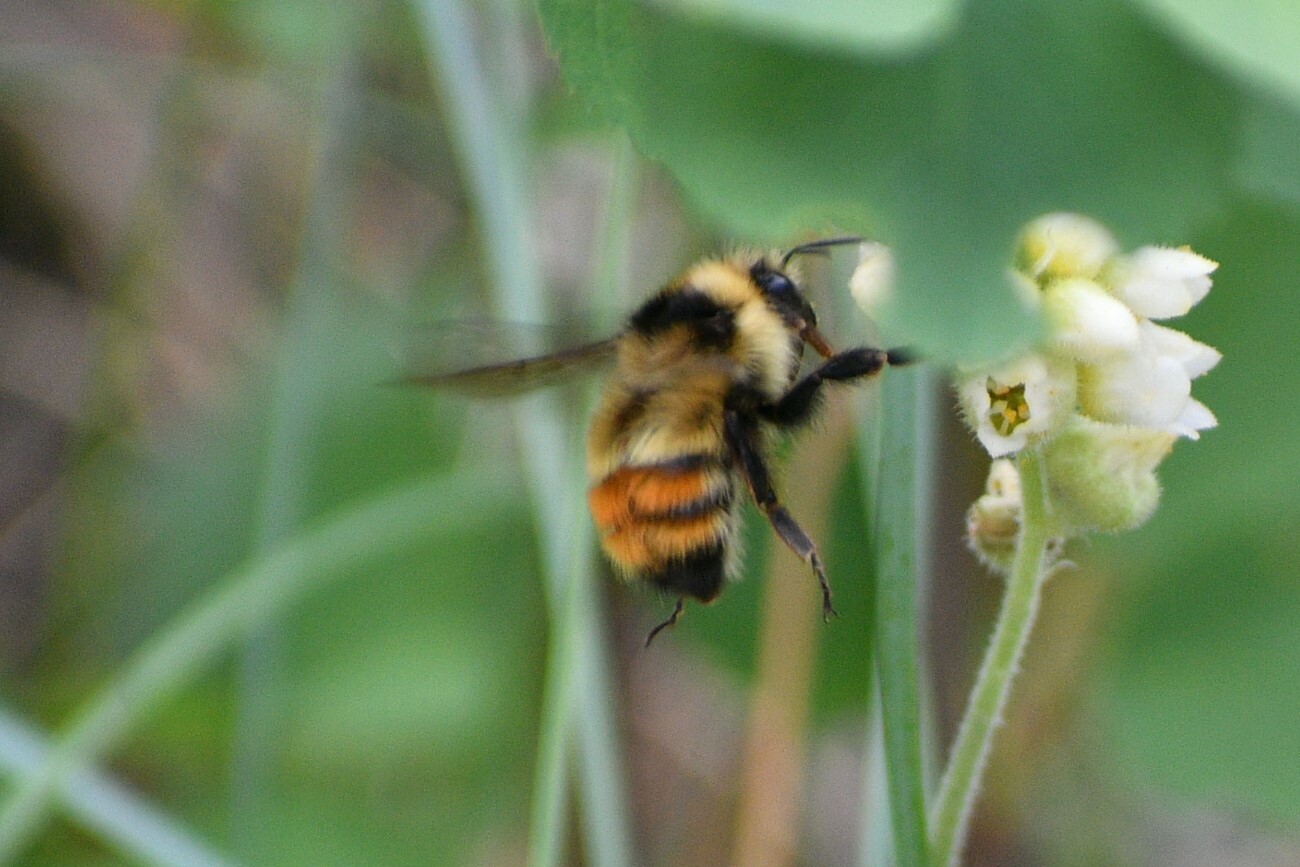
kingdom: Animalia
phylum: Arthropoda
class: Insecta
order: Hymenoptera
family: Apidae
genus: Bombus
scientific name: Bombus centralis
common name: Central bumble bee
